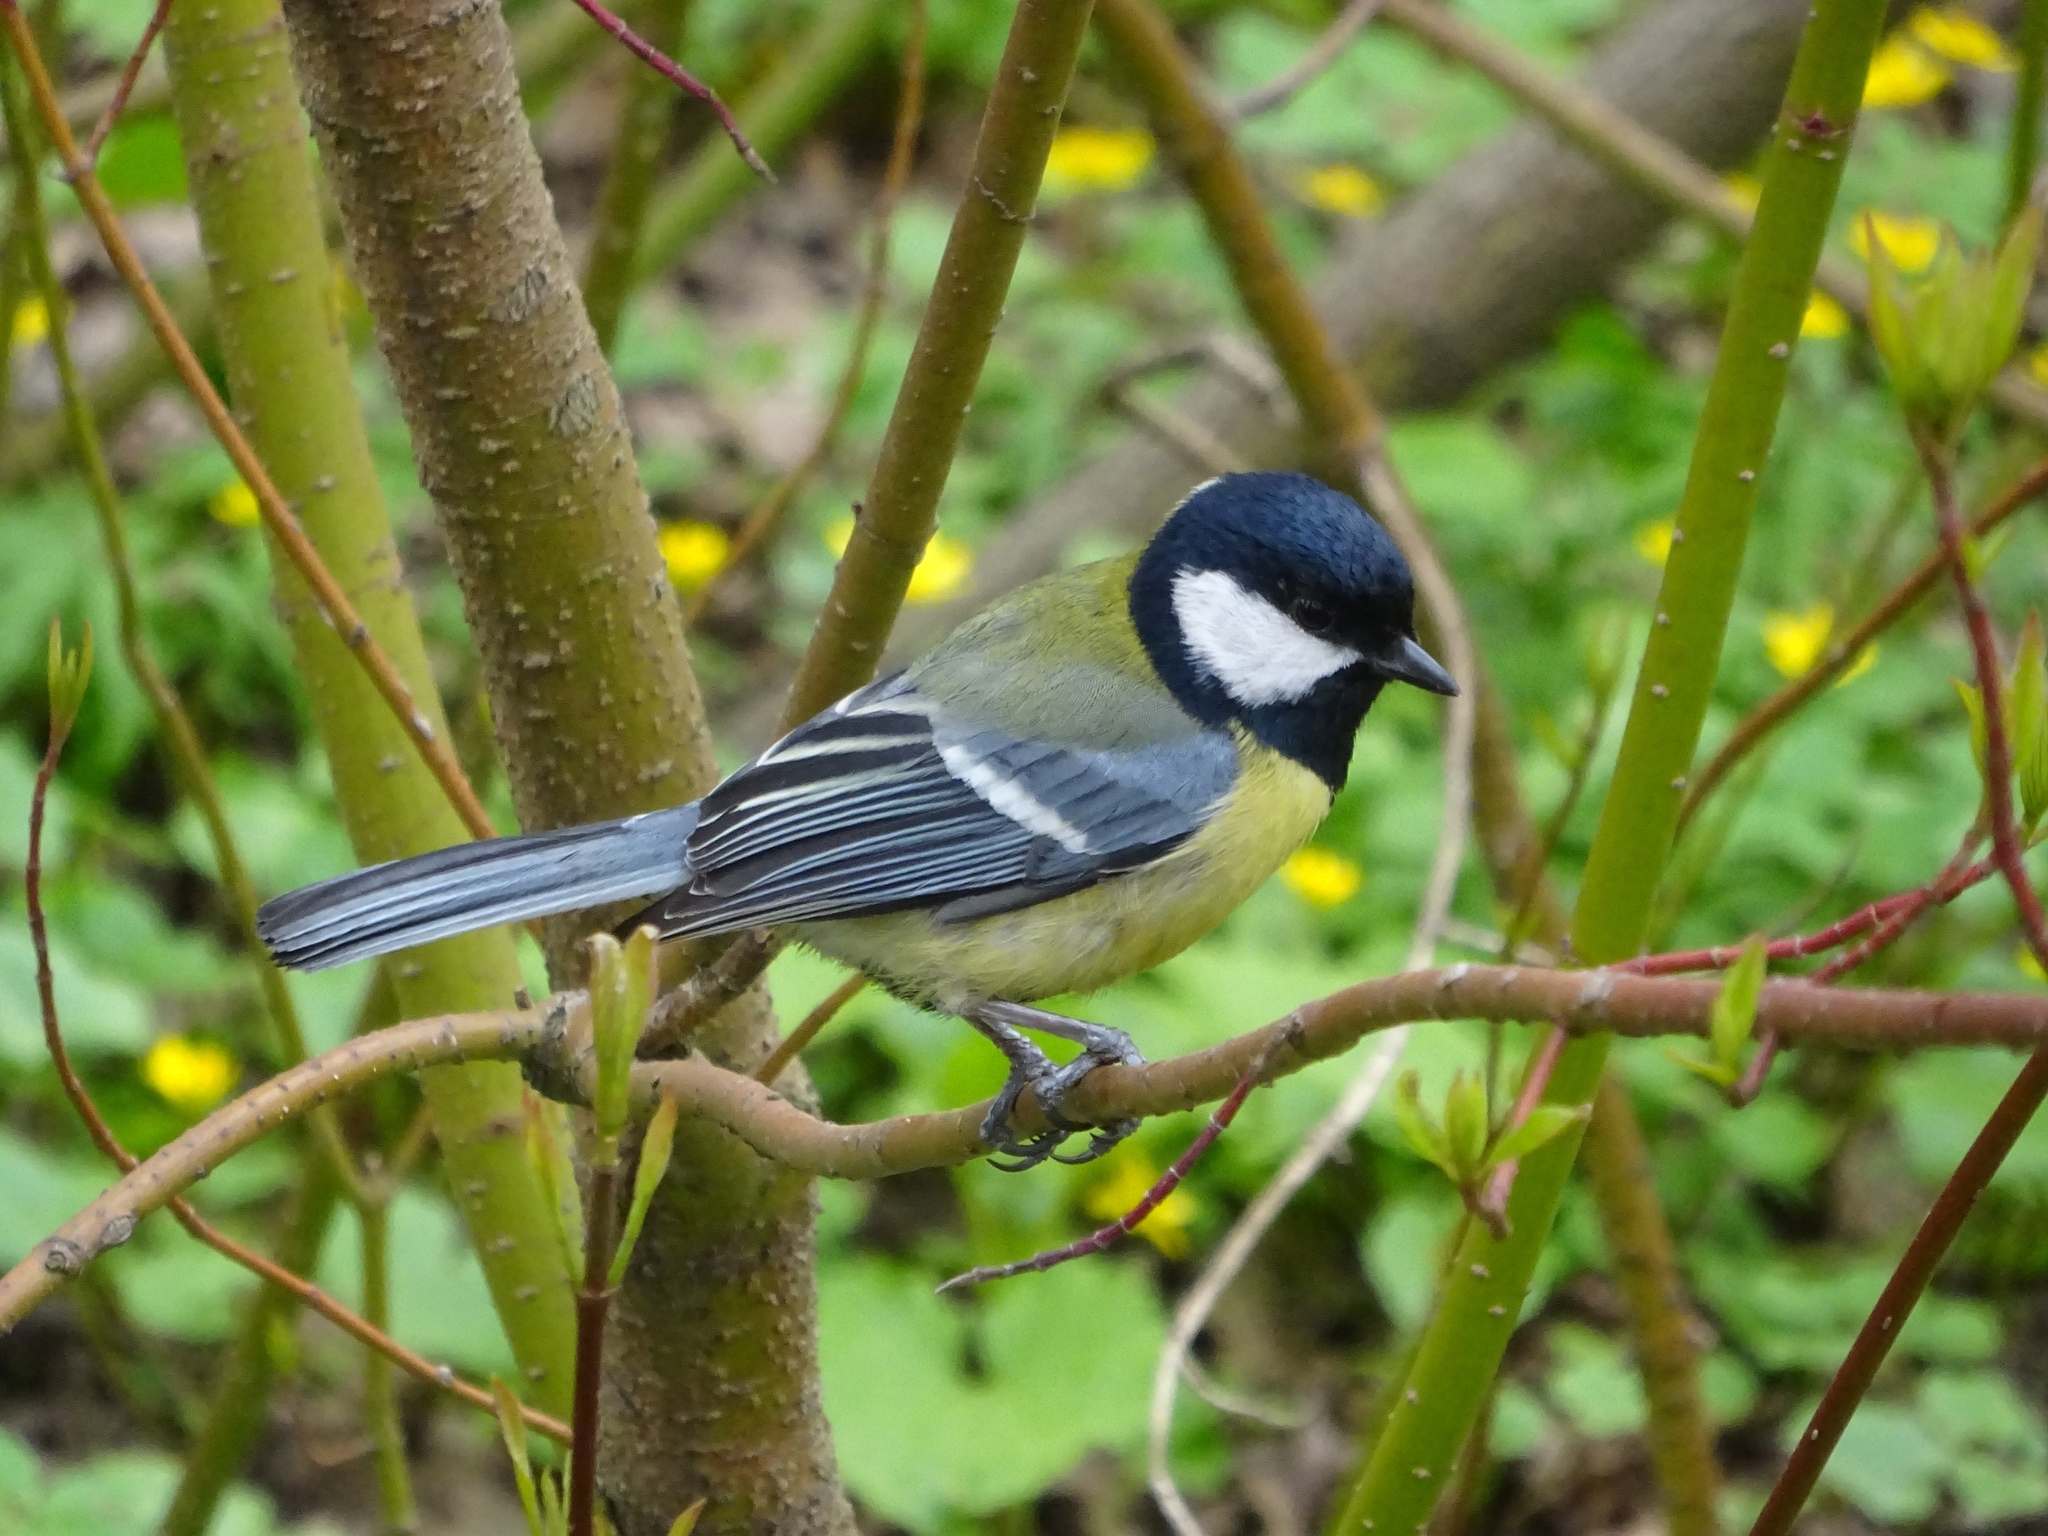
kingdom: Animalia
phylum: Chordata
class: Aves
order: Passeriformes
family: Paridae
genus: Parus
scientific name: Parus major
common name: Great tit
